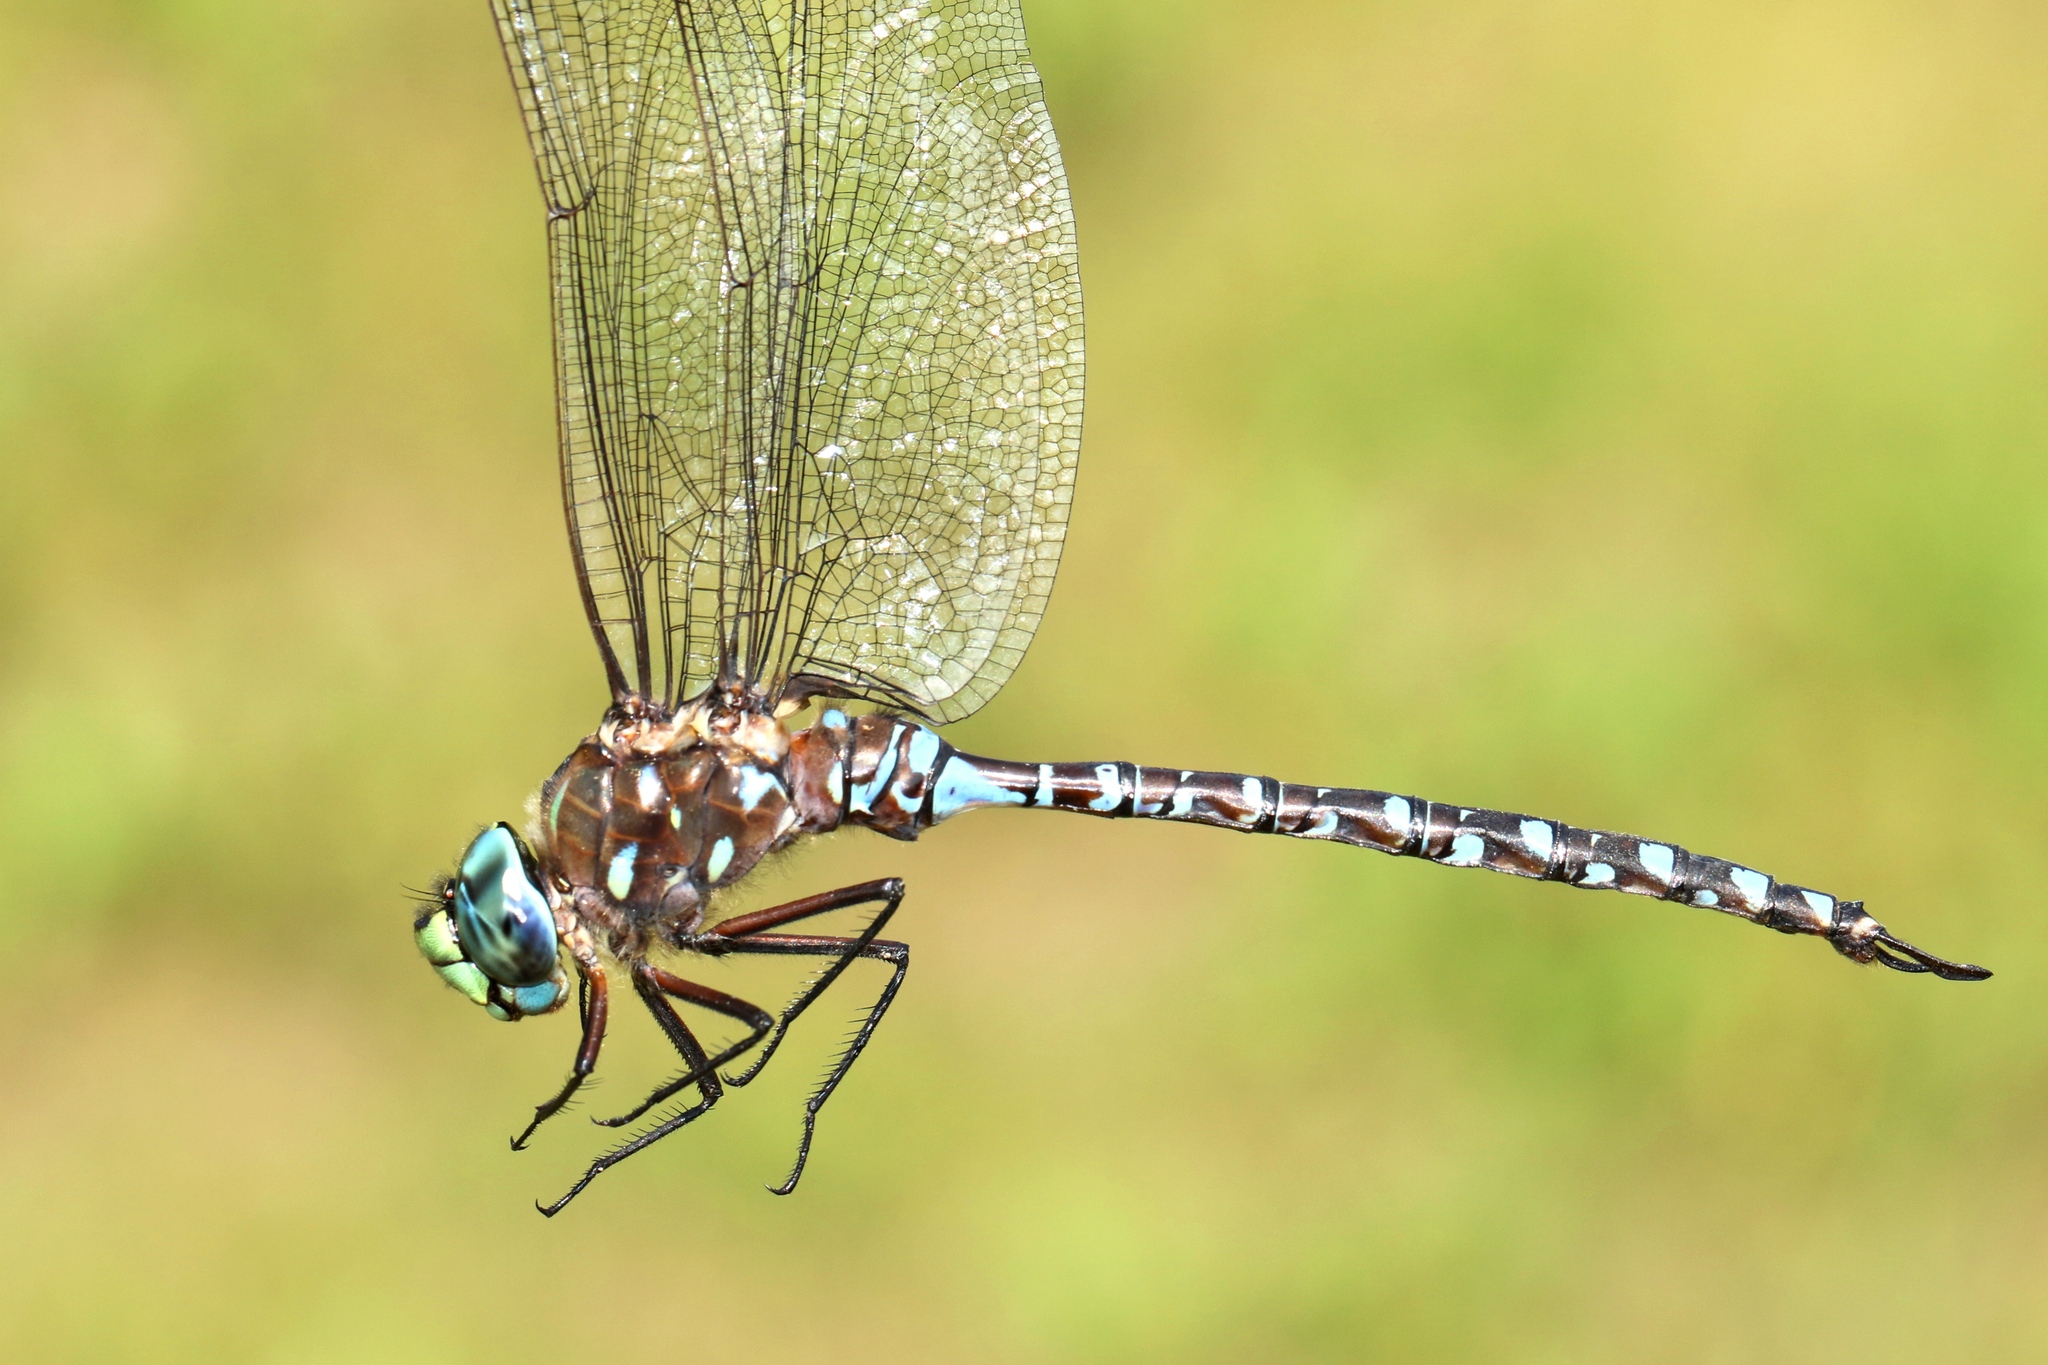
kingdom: Animalia
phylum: Arthropoda
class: Insecta
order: Odonata
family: Aeshnidae
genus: Aeshna
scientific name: Aeshna interrupta
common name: Variable darner
